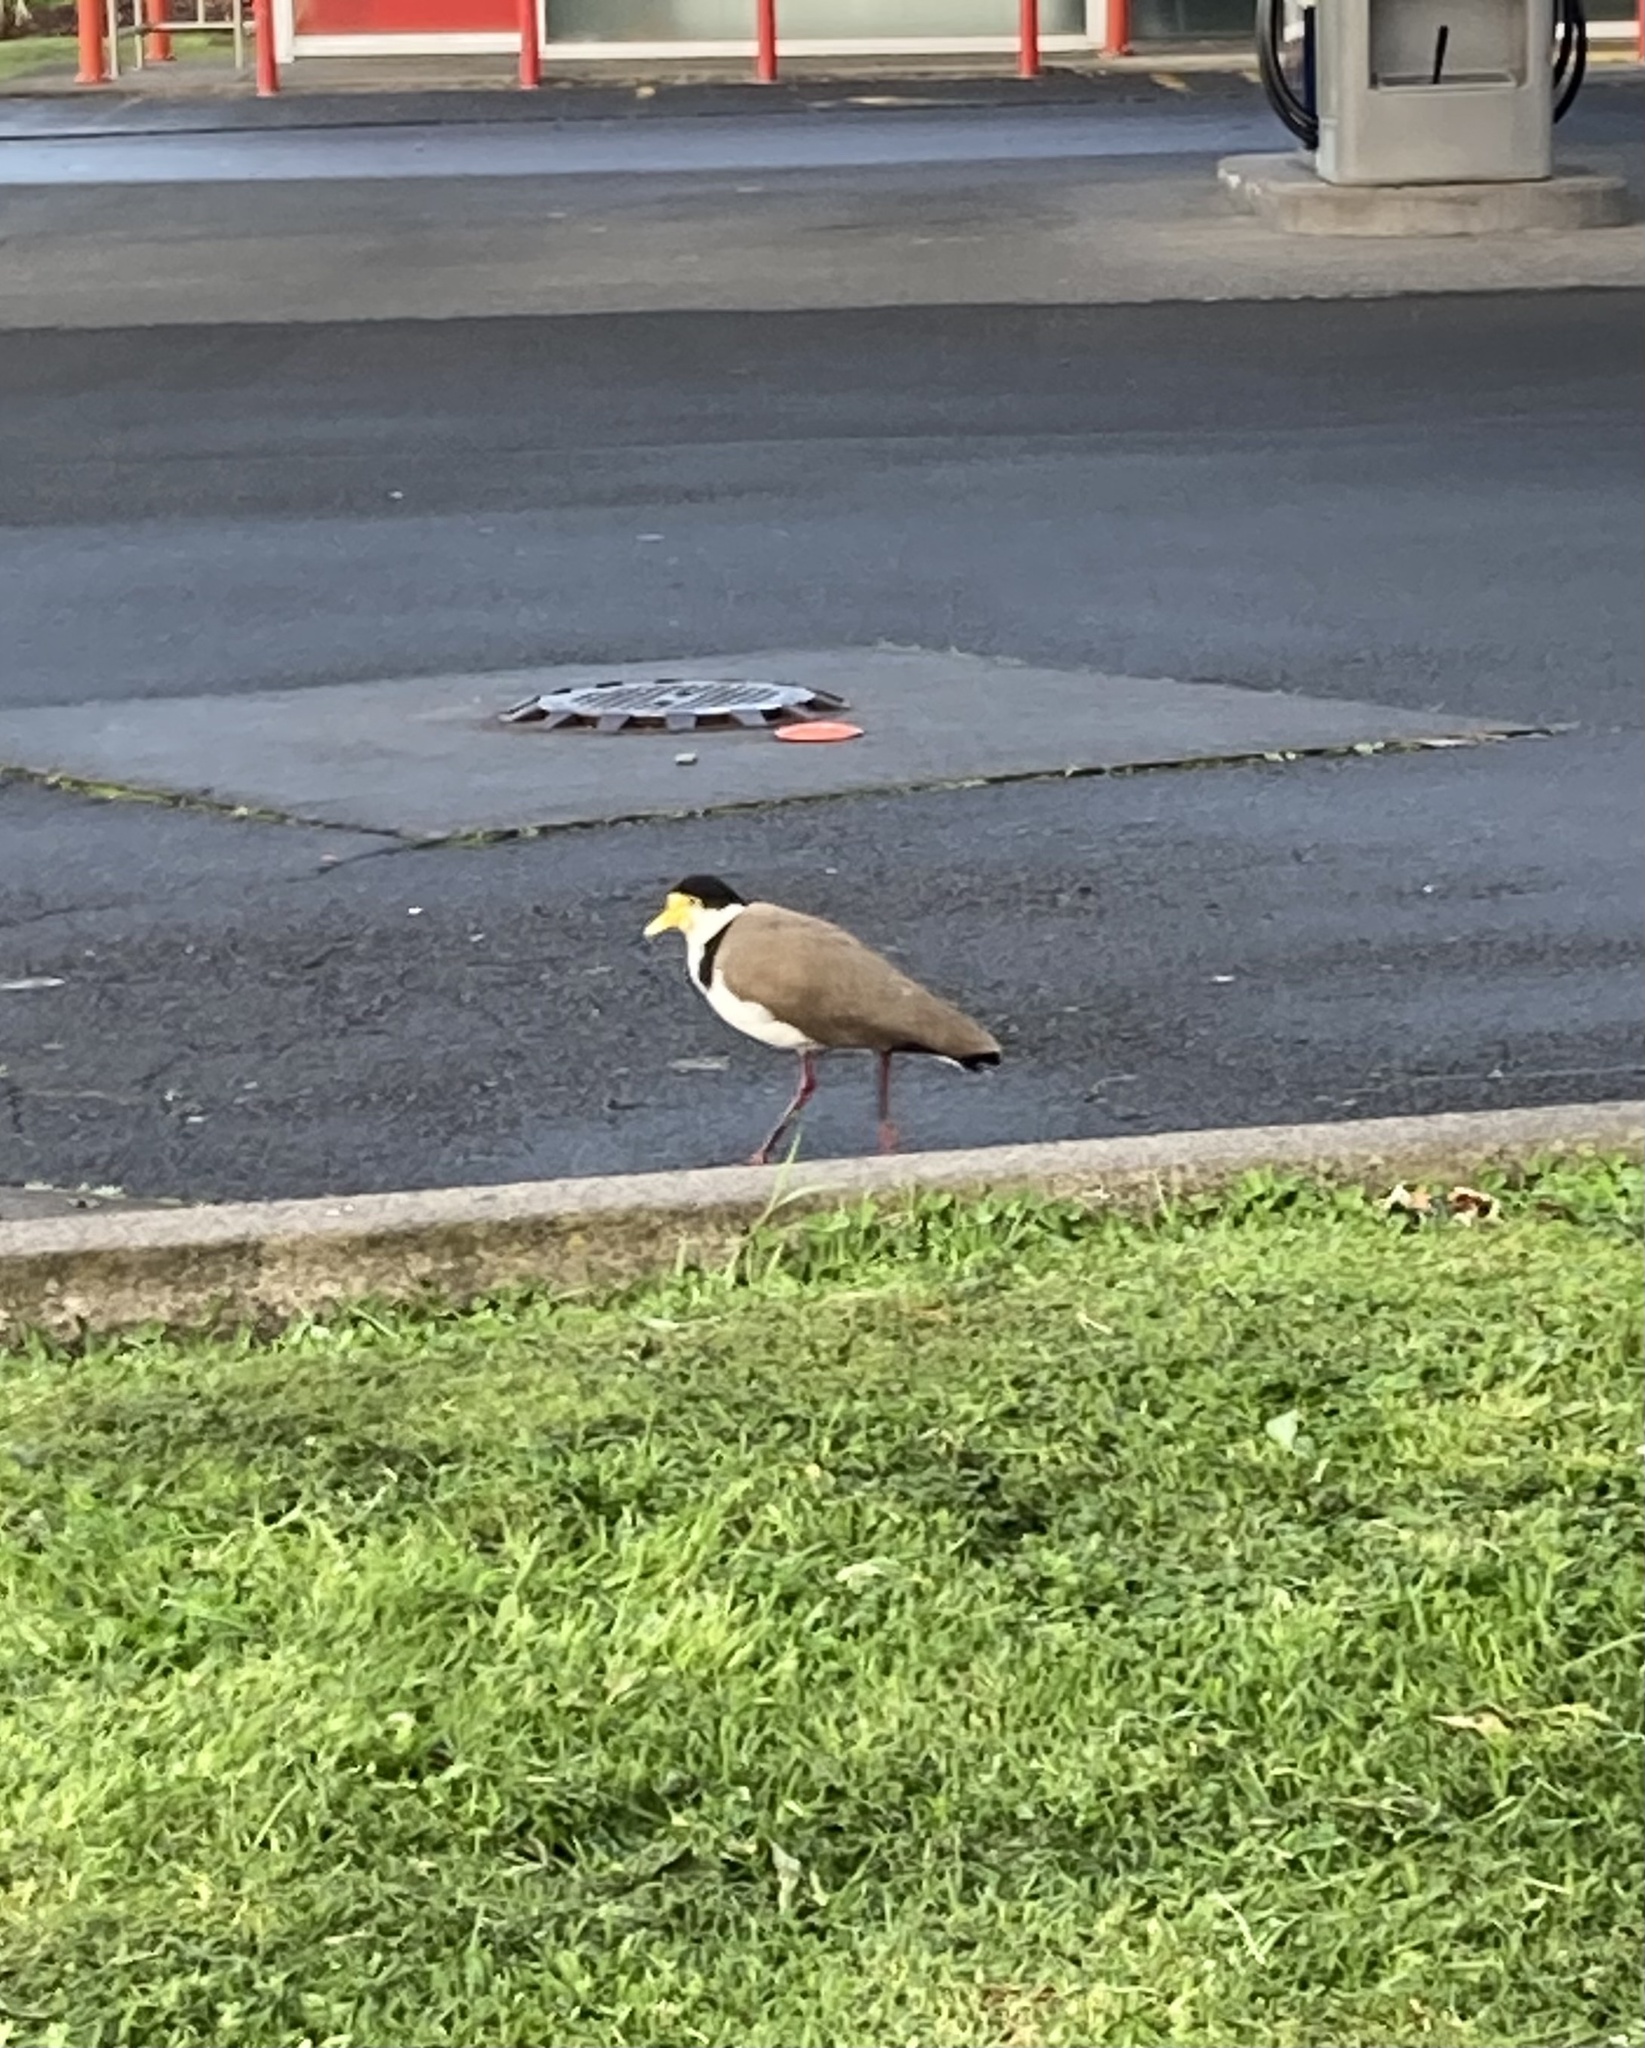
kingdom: Animalia
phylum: Chordata
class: Aves
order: Charadriiformes
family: Charadriidae
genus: Vanellus
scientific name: Vanellus miles
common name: Masked lapwing
